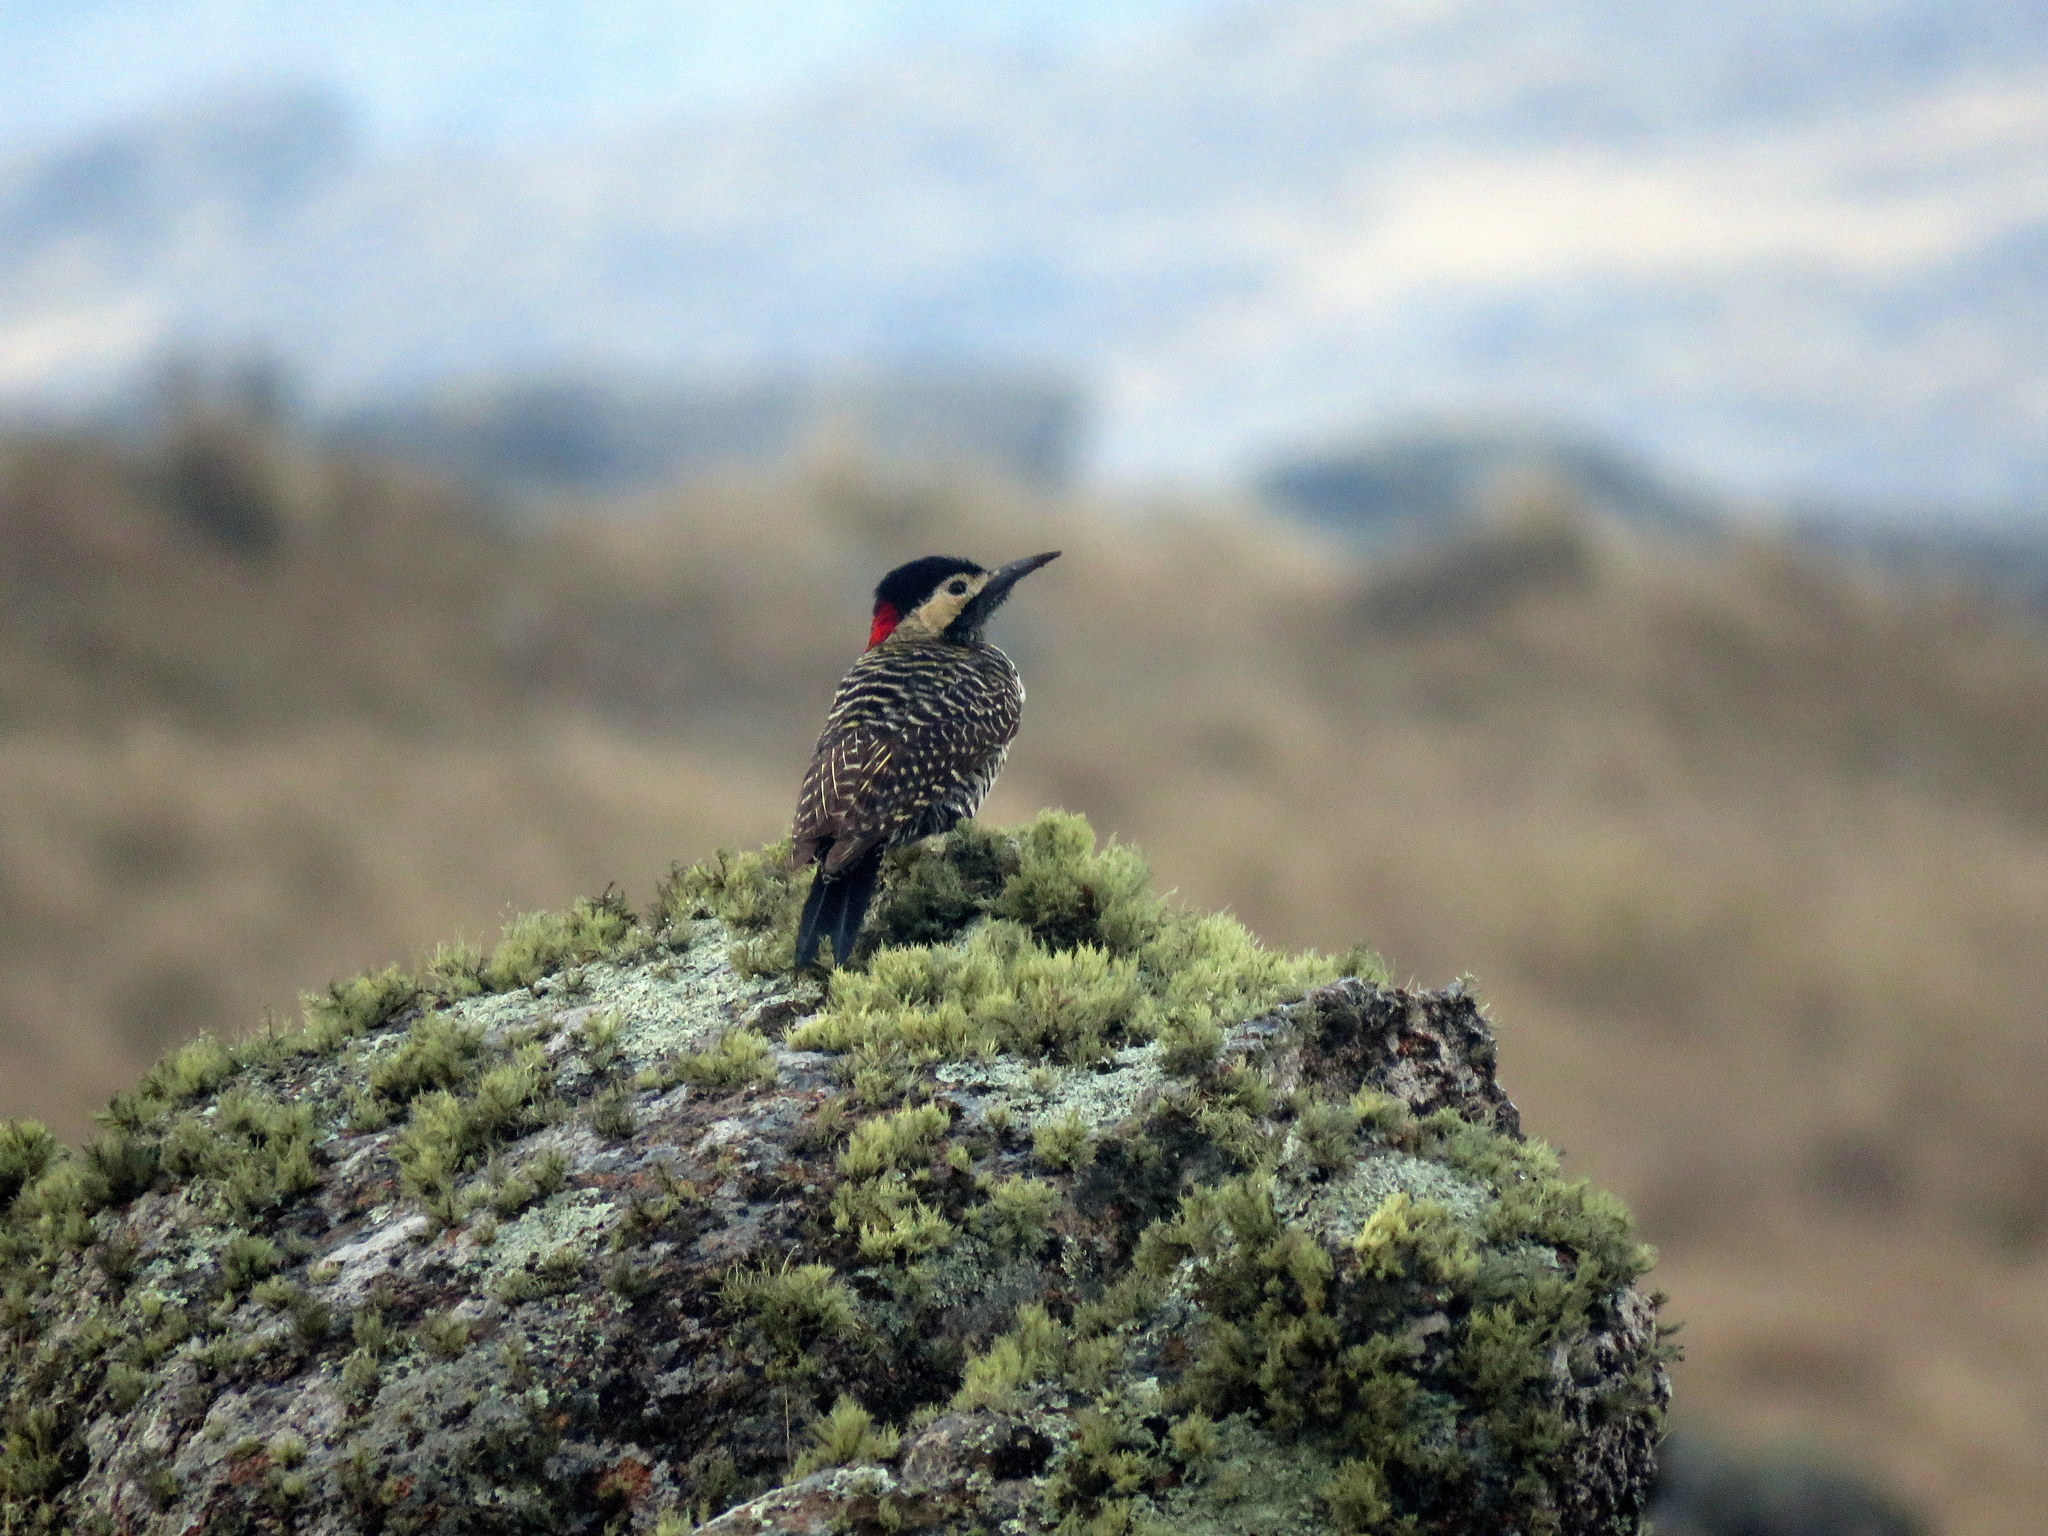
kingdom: Animalia
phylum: Chordata
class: Aves
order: Piciformes
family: Picidae
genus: Colaptes
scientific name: Colaptes melanochloros
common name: Green-barred woodpecker
